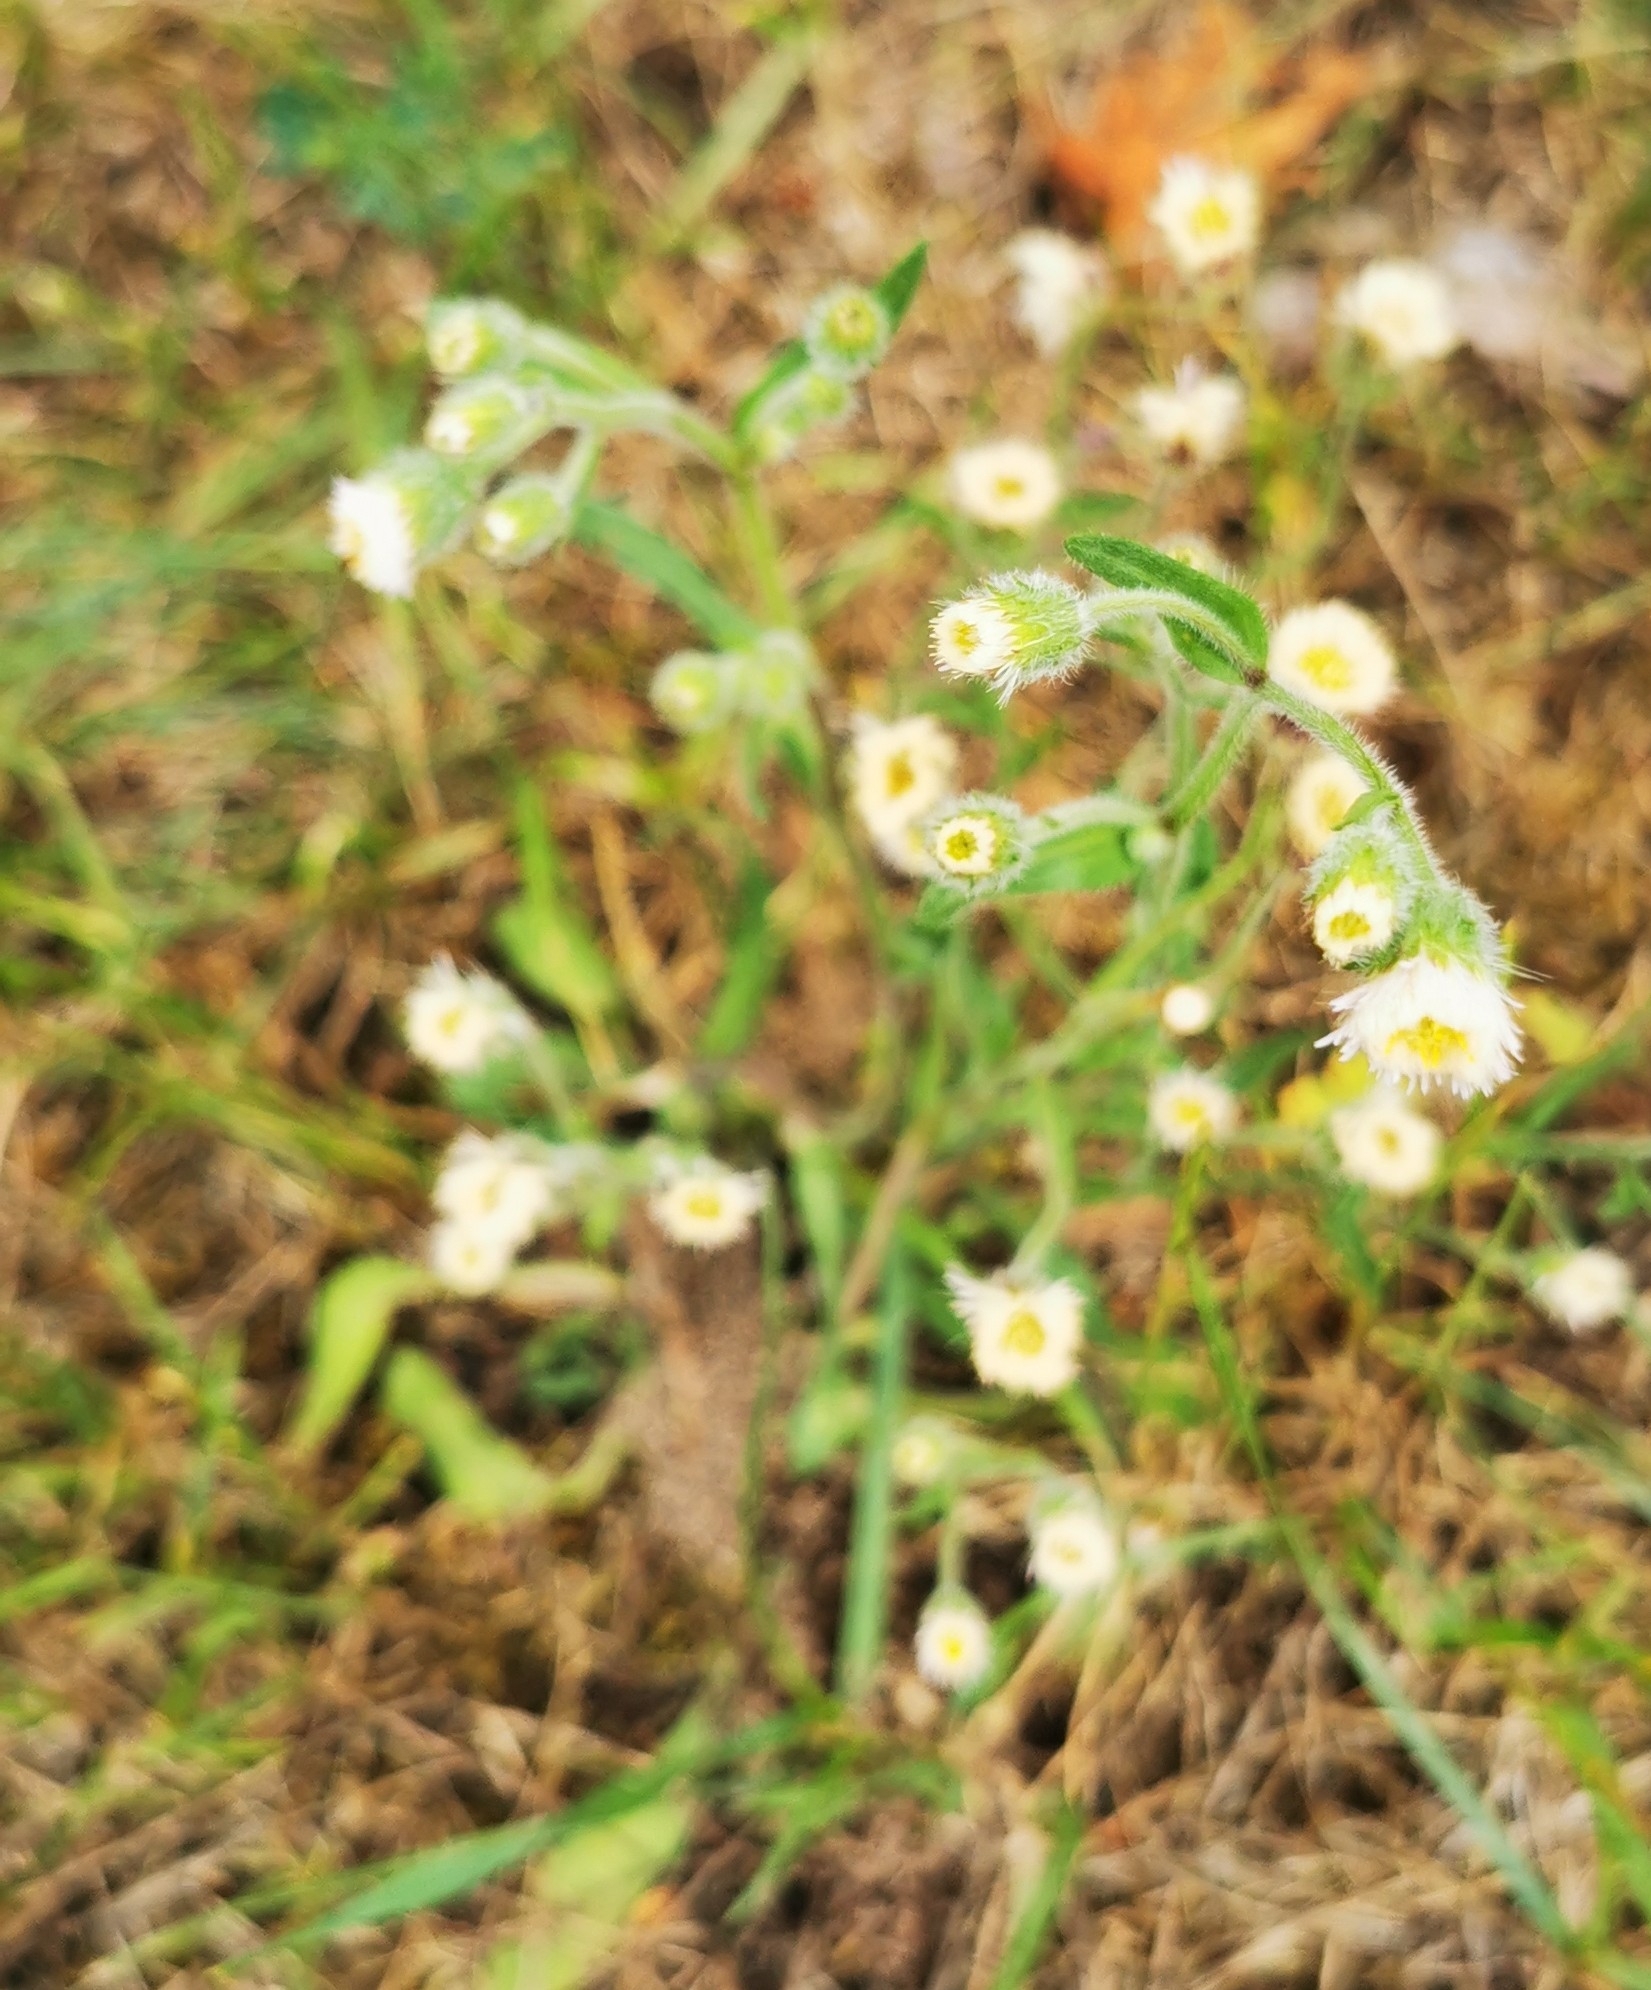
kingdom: Plantae
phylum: Tracheophyta
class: Magnoliopsida
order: Asterales
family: Asteraceae
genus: Erigeron
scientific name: Erigeron acris
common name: Blue fleabane
